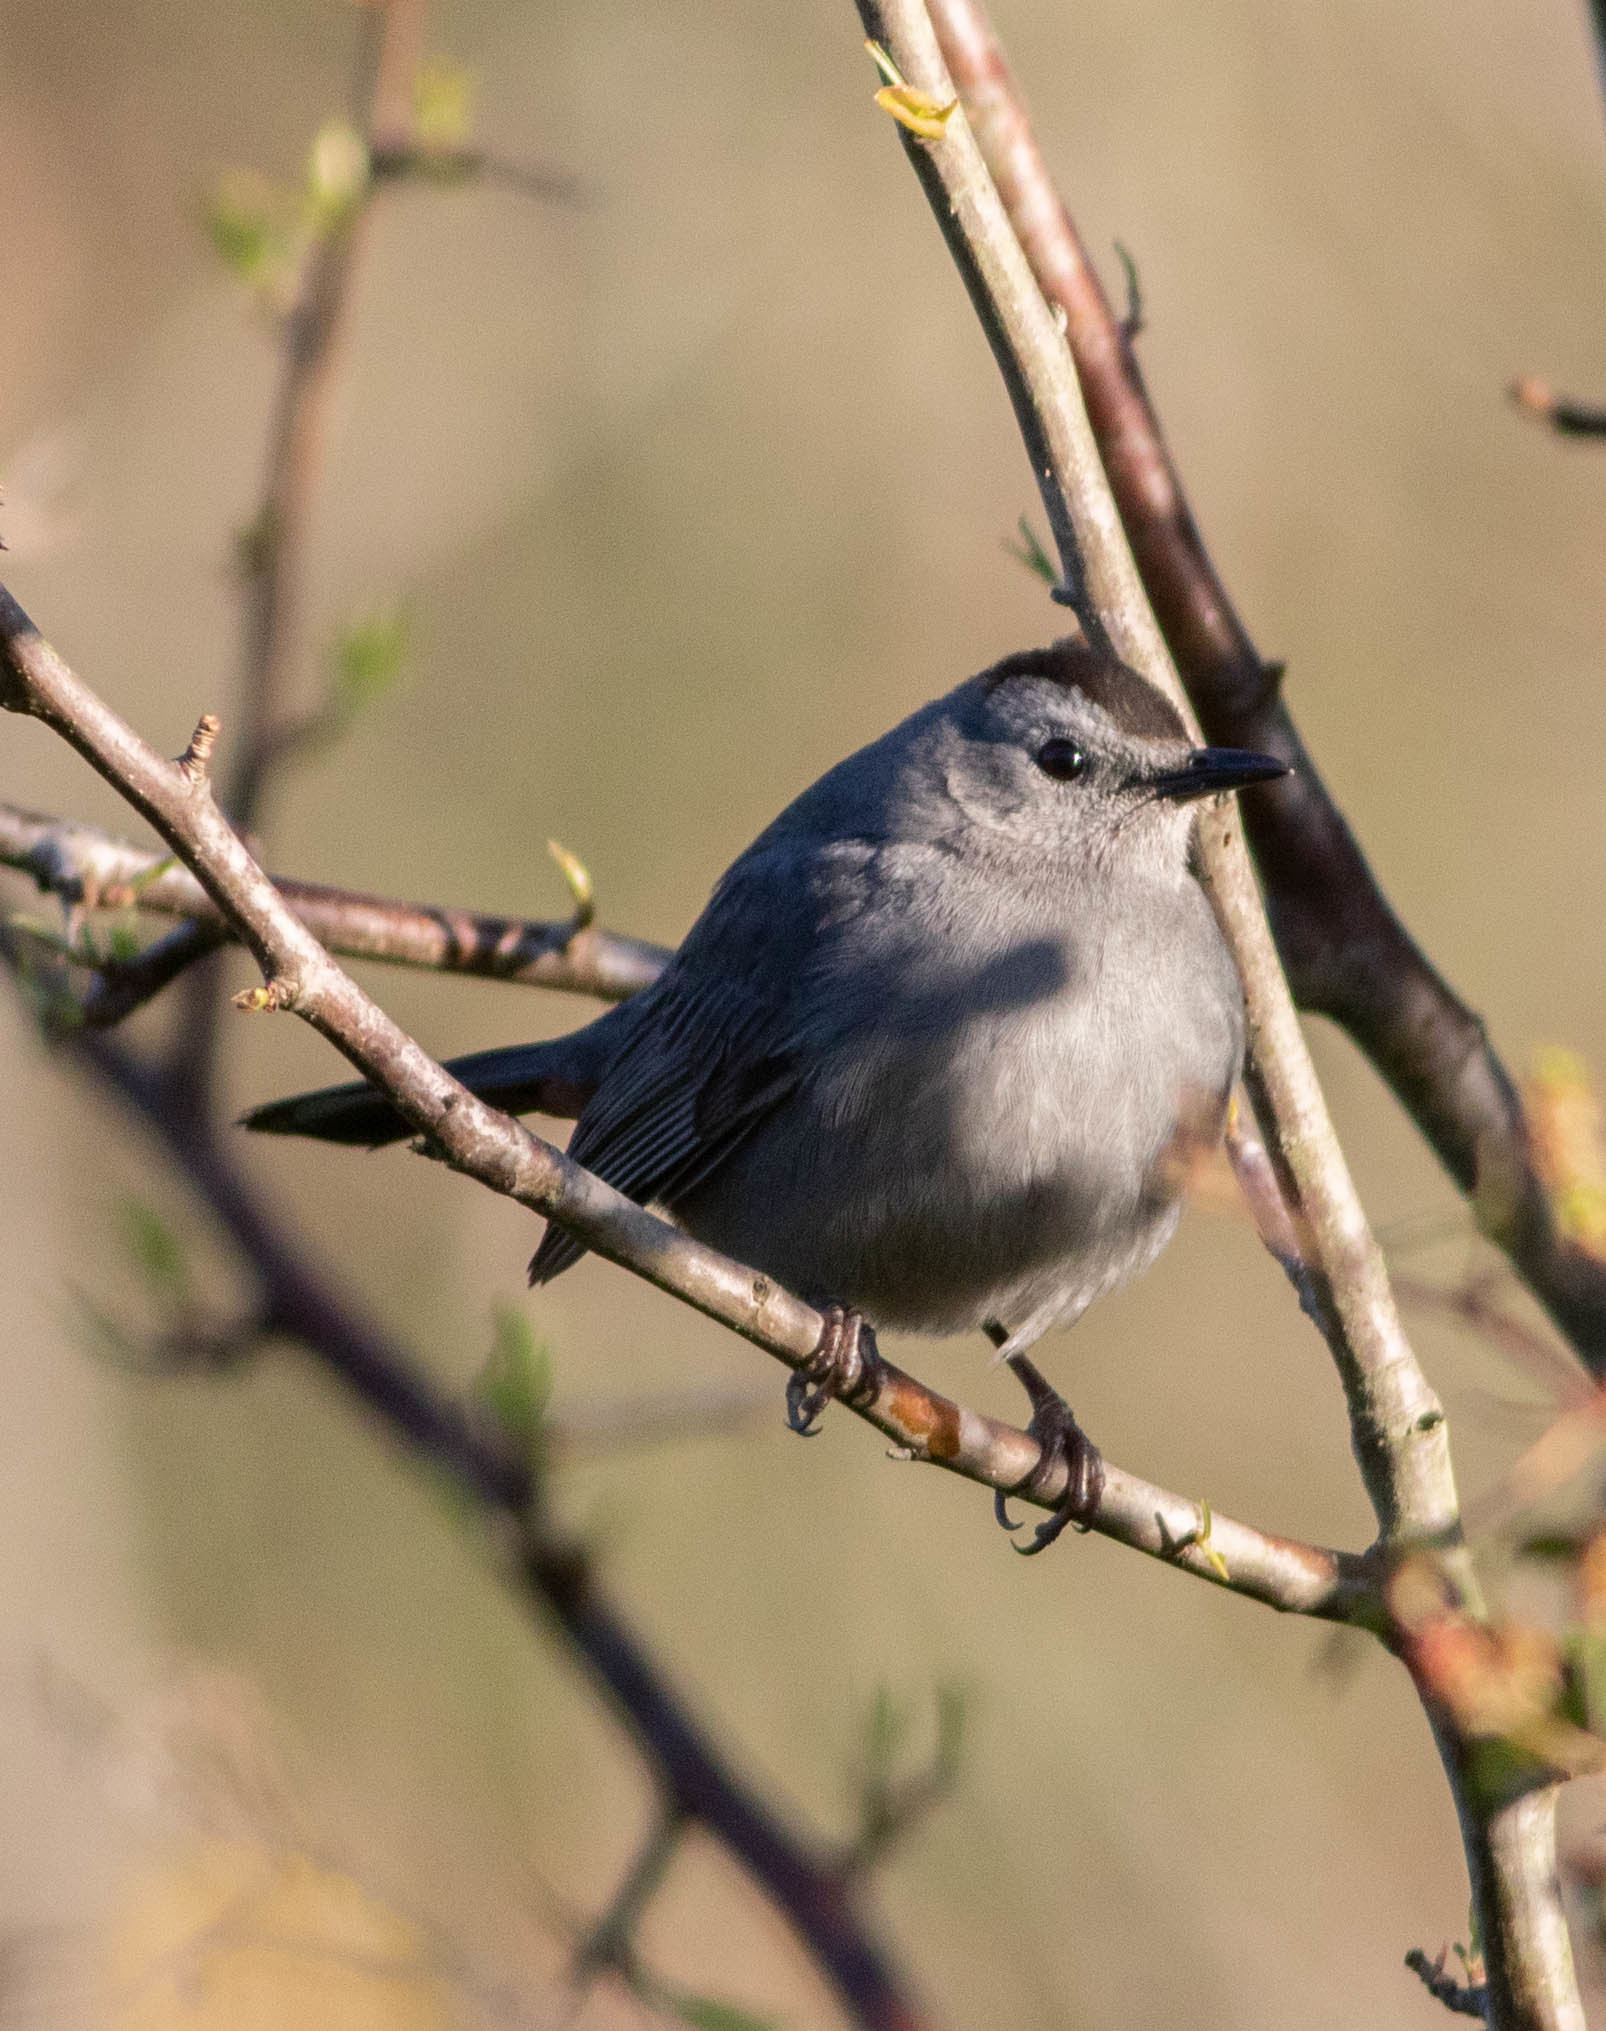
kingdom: Animalia
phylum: Chordata
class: Aves
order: Passeriformes
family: Mimidae
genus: Dumetella
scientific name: Dumetella carolinensis
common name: Gray catbird
